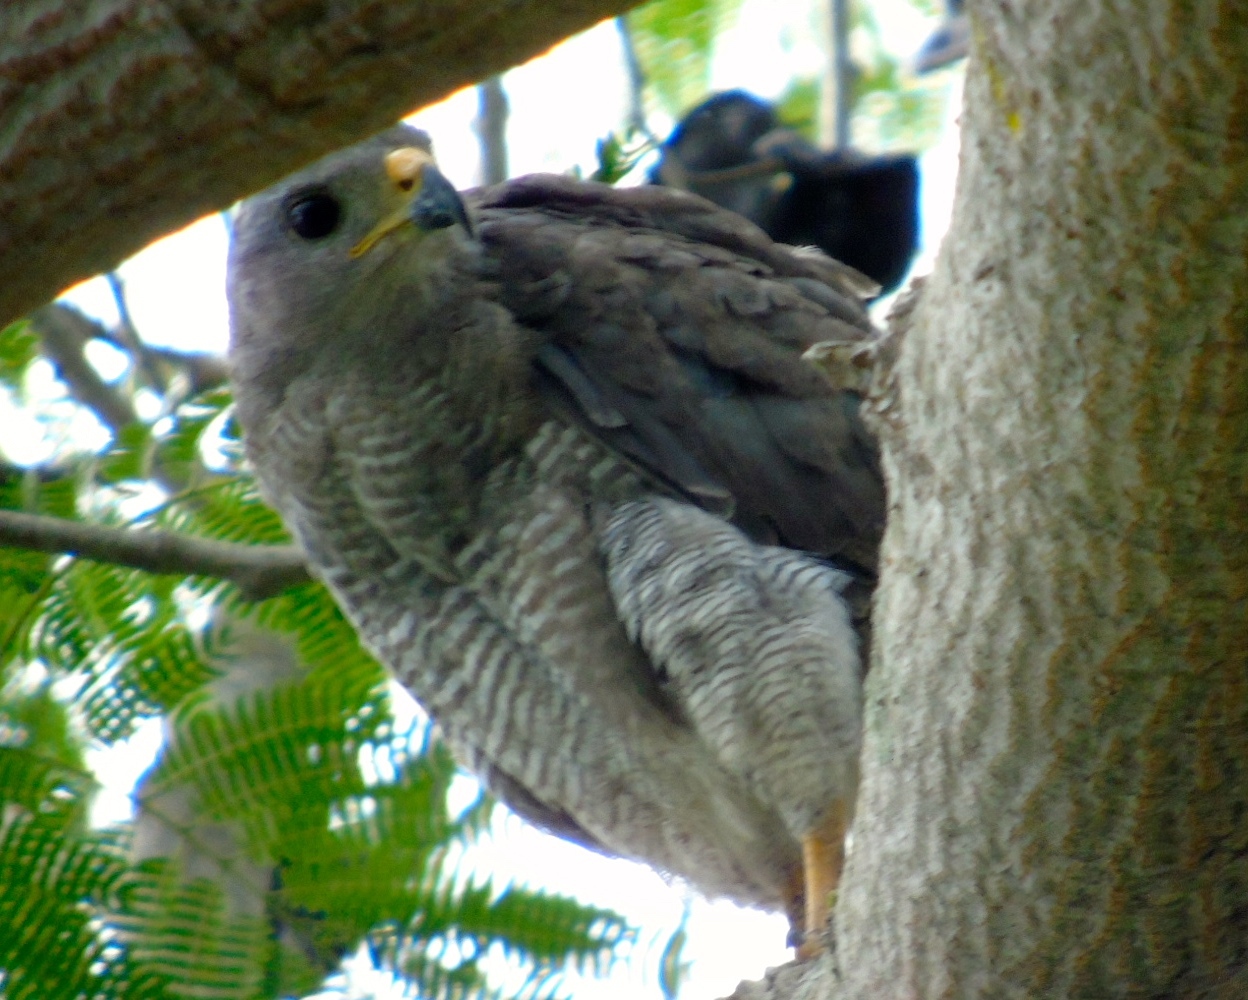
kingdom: Animalia
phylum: Chordata
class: Aves
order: Accipitriformes
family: Accipitridae
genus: Buteo
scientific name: Buteo nitidus
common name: Grey-lined hawk
